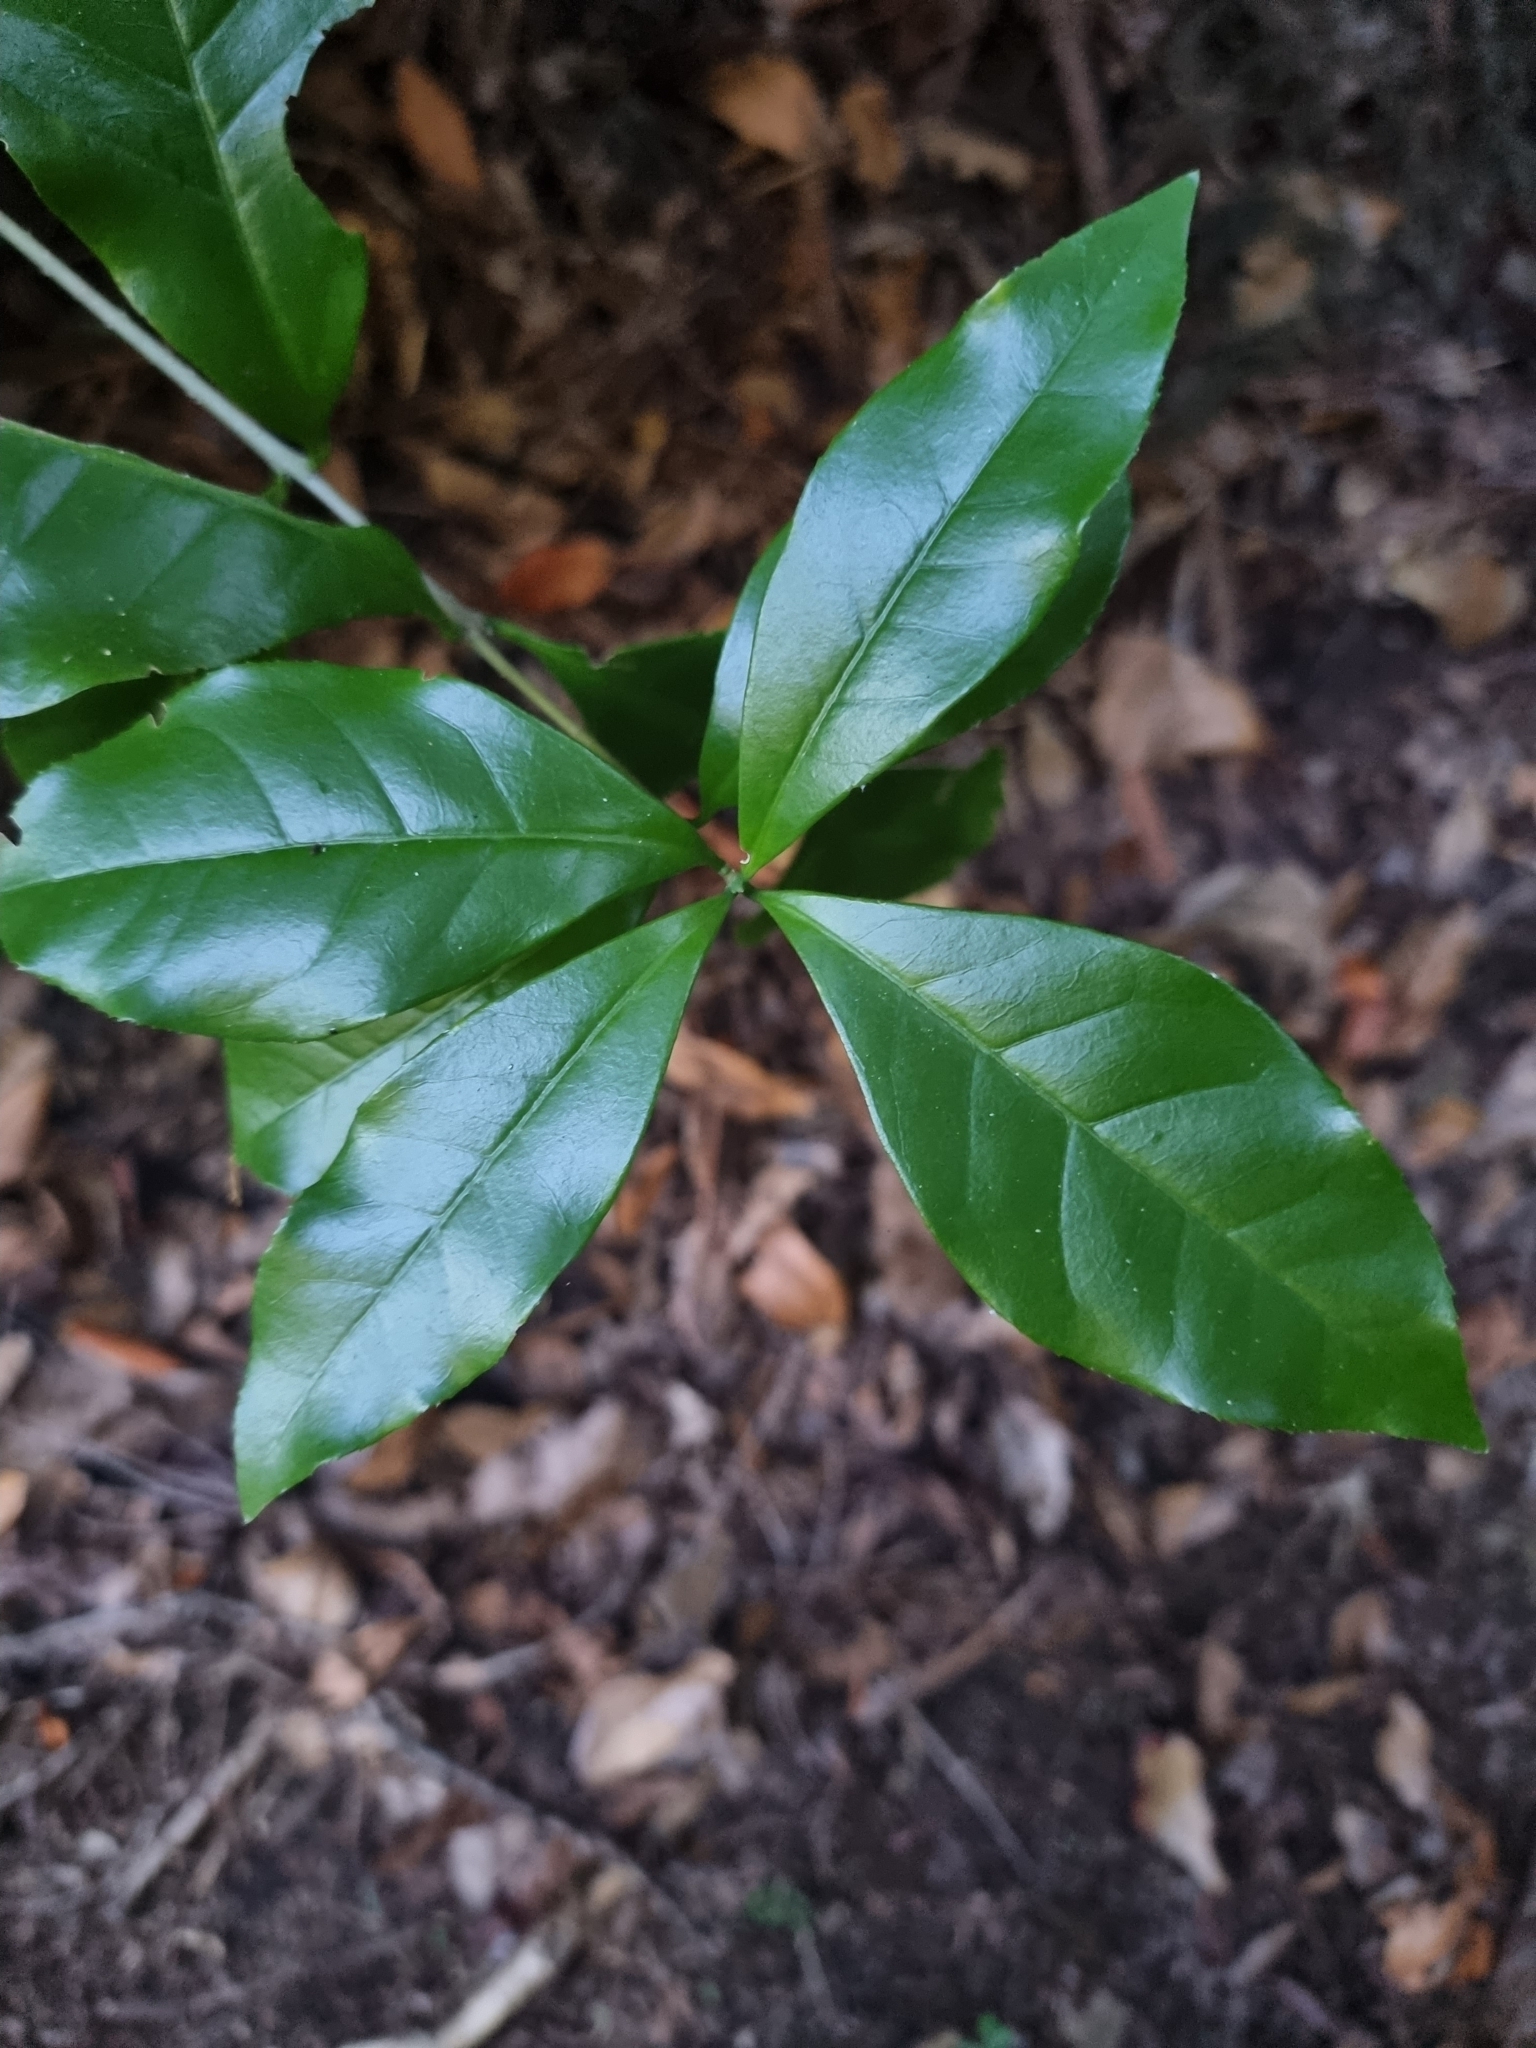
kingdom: Plantae
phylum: Tracheophyta
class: Magnoliopsida
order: Lamiales
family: Oleaceae
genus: Picconia
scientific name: Picconia excelsa
